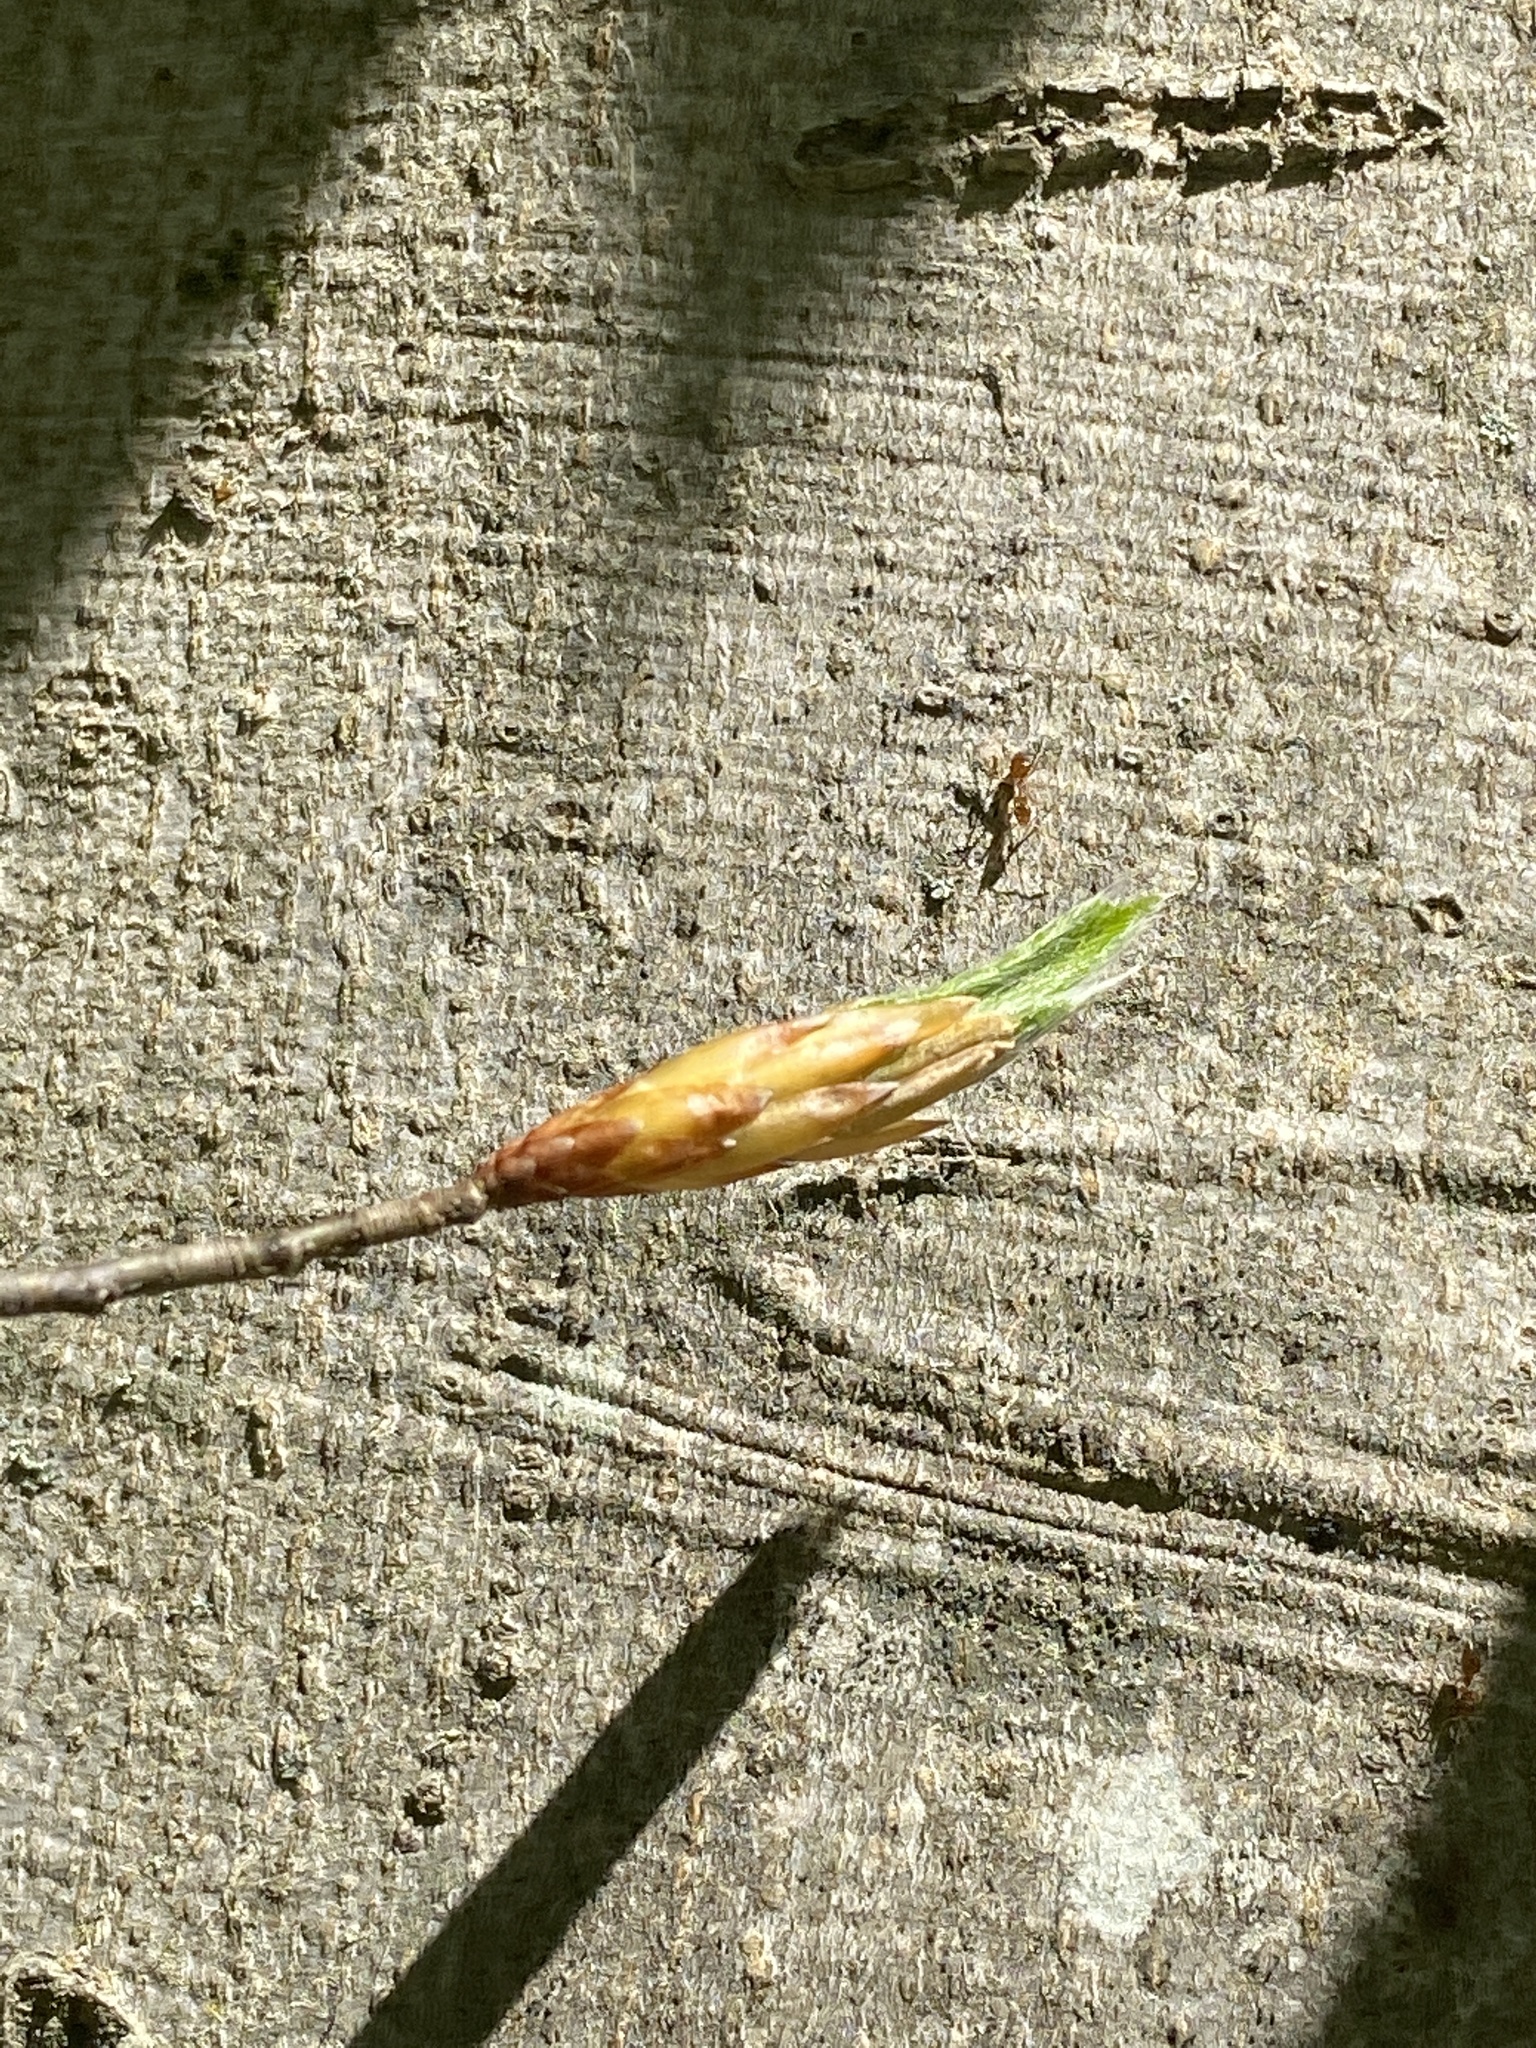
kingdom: Plantae
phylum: Tracheophyta
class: Magnoliopsida
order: Fagales
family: Fagaceae
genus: Fagus
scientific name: Fagus grandifolia
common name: American beech
